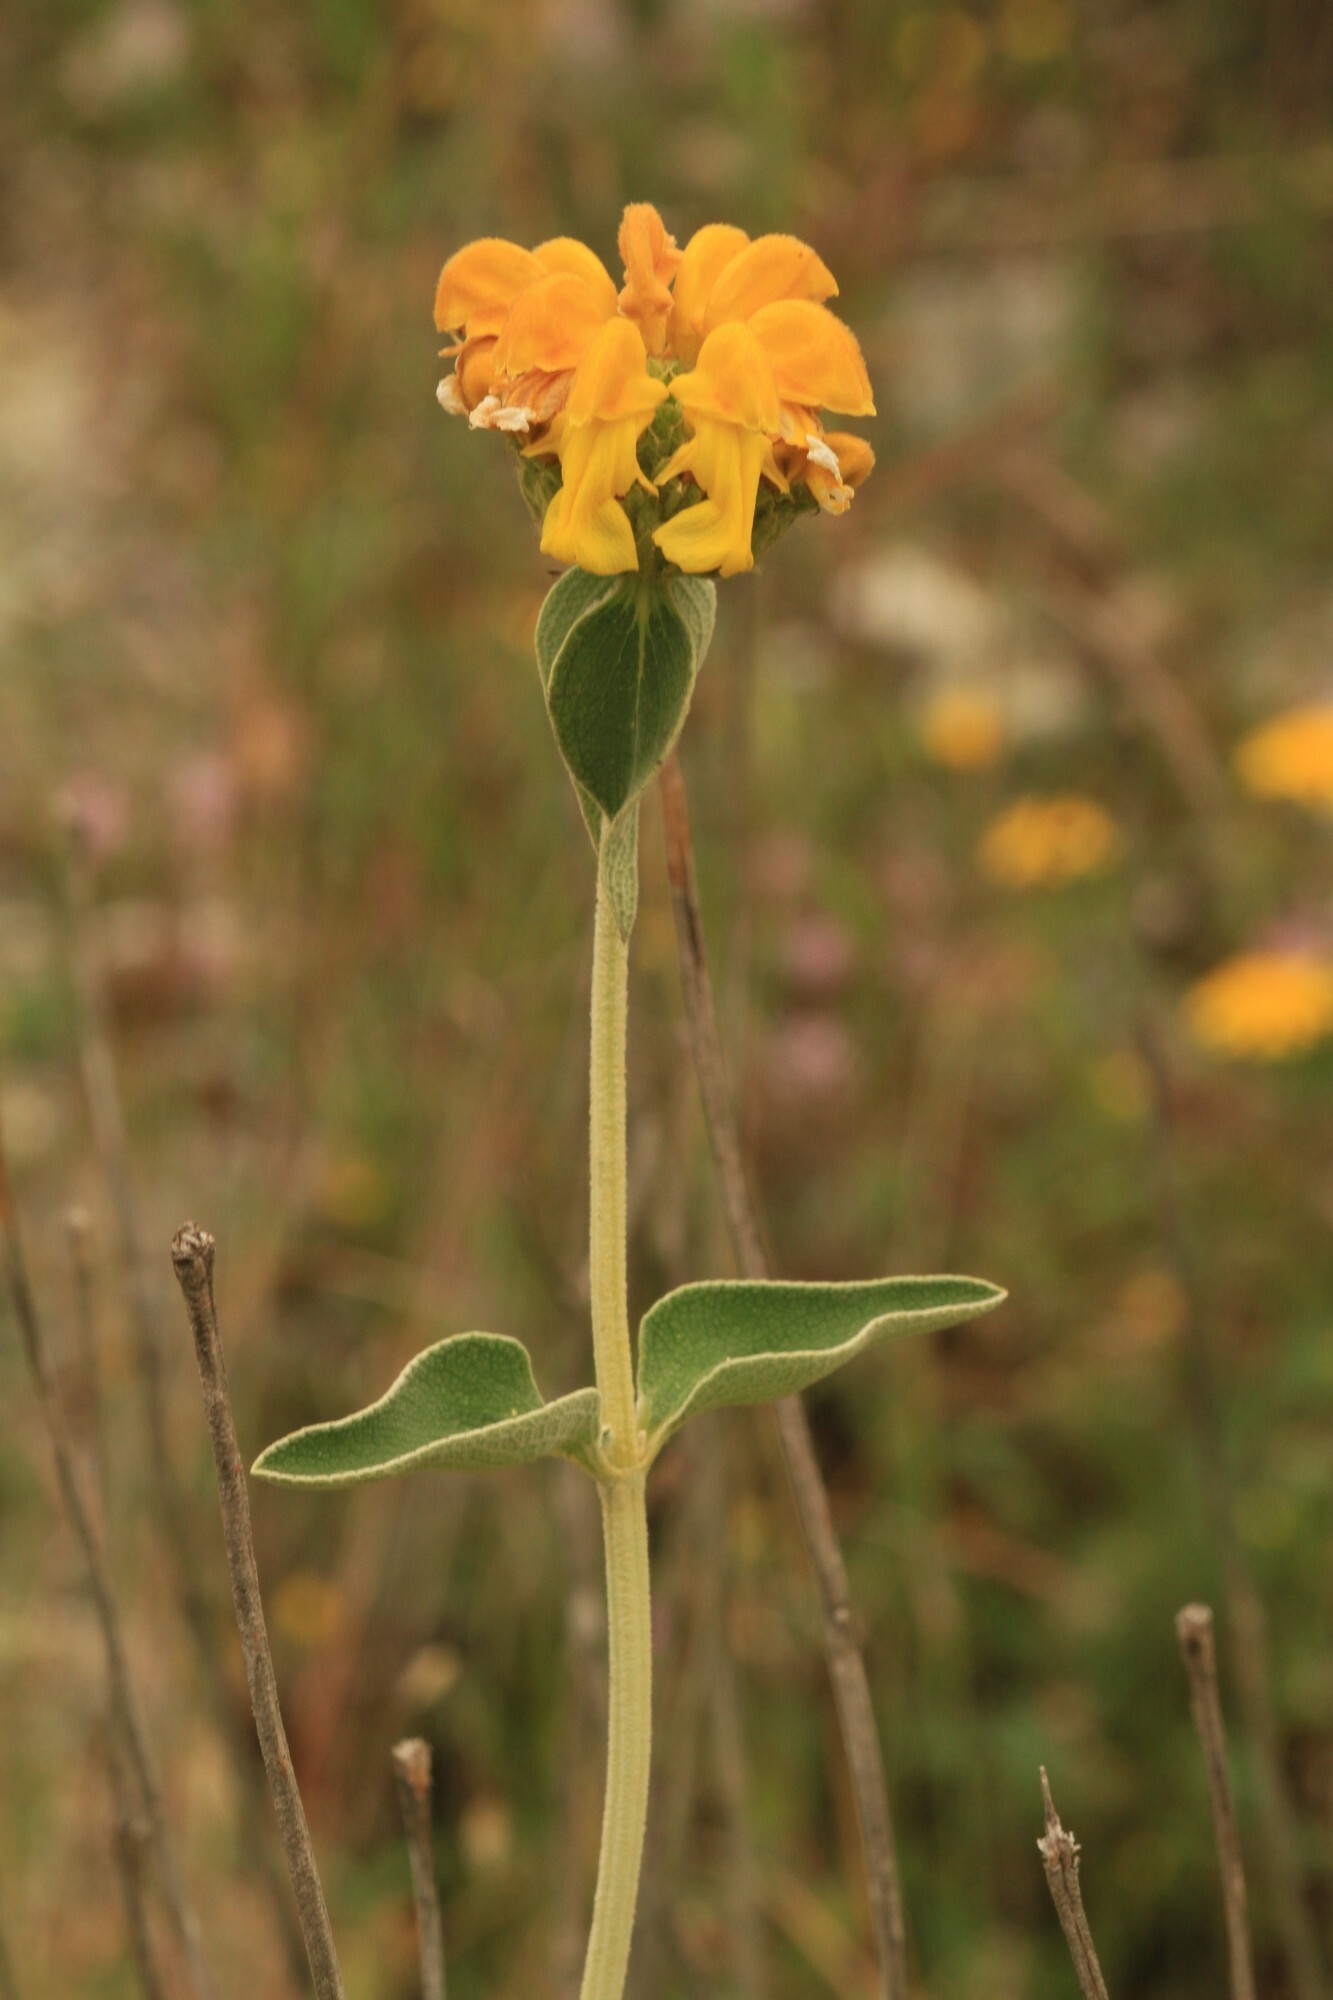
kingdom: Plantae
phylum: Tracheophyta
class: Magnoliopsida
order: Lamiales
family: Lamiaceae
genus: Phlomis
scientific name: Phlomis fruticosa
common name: Jerusalem sage
